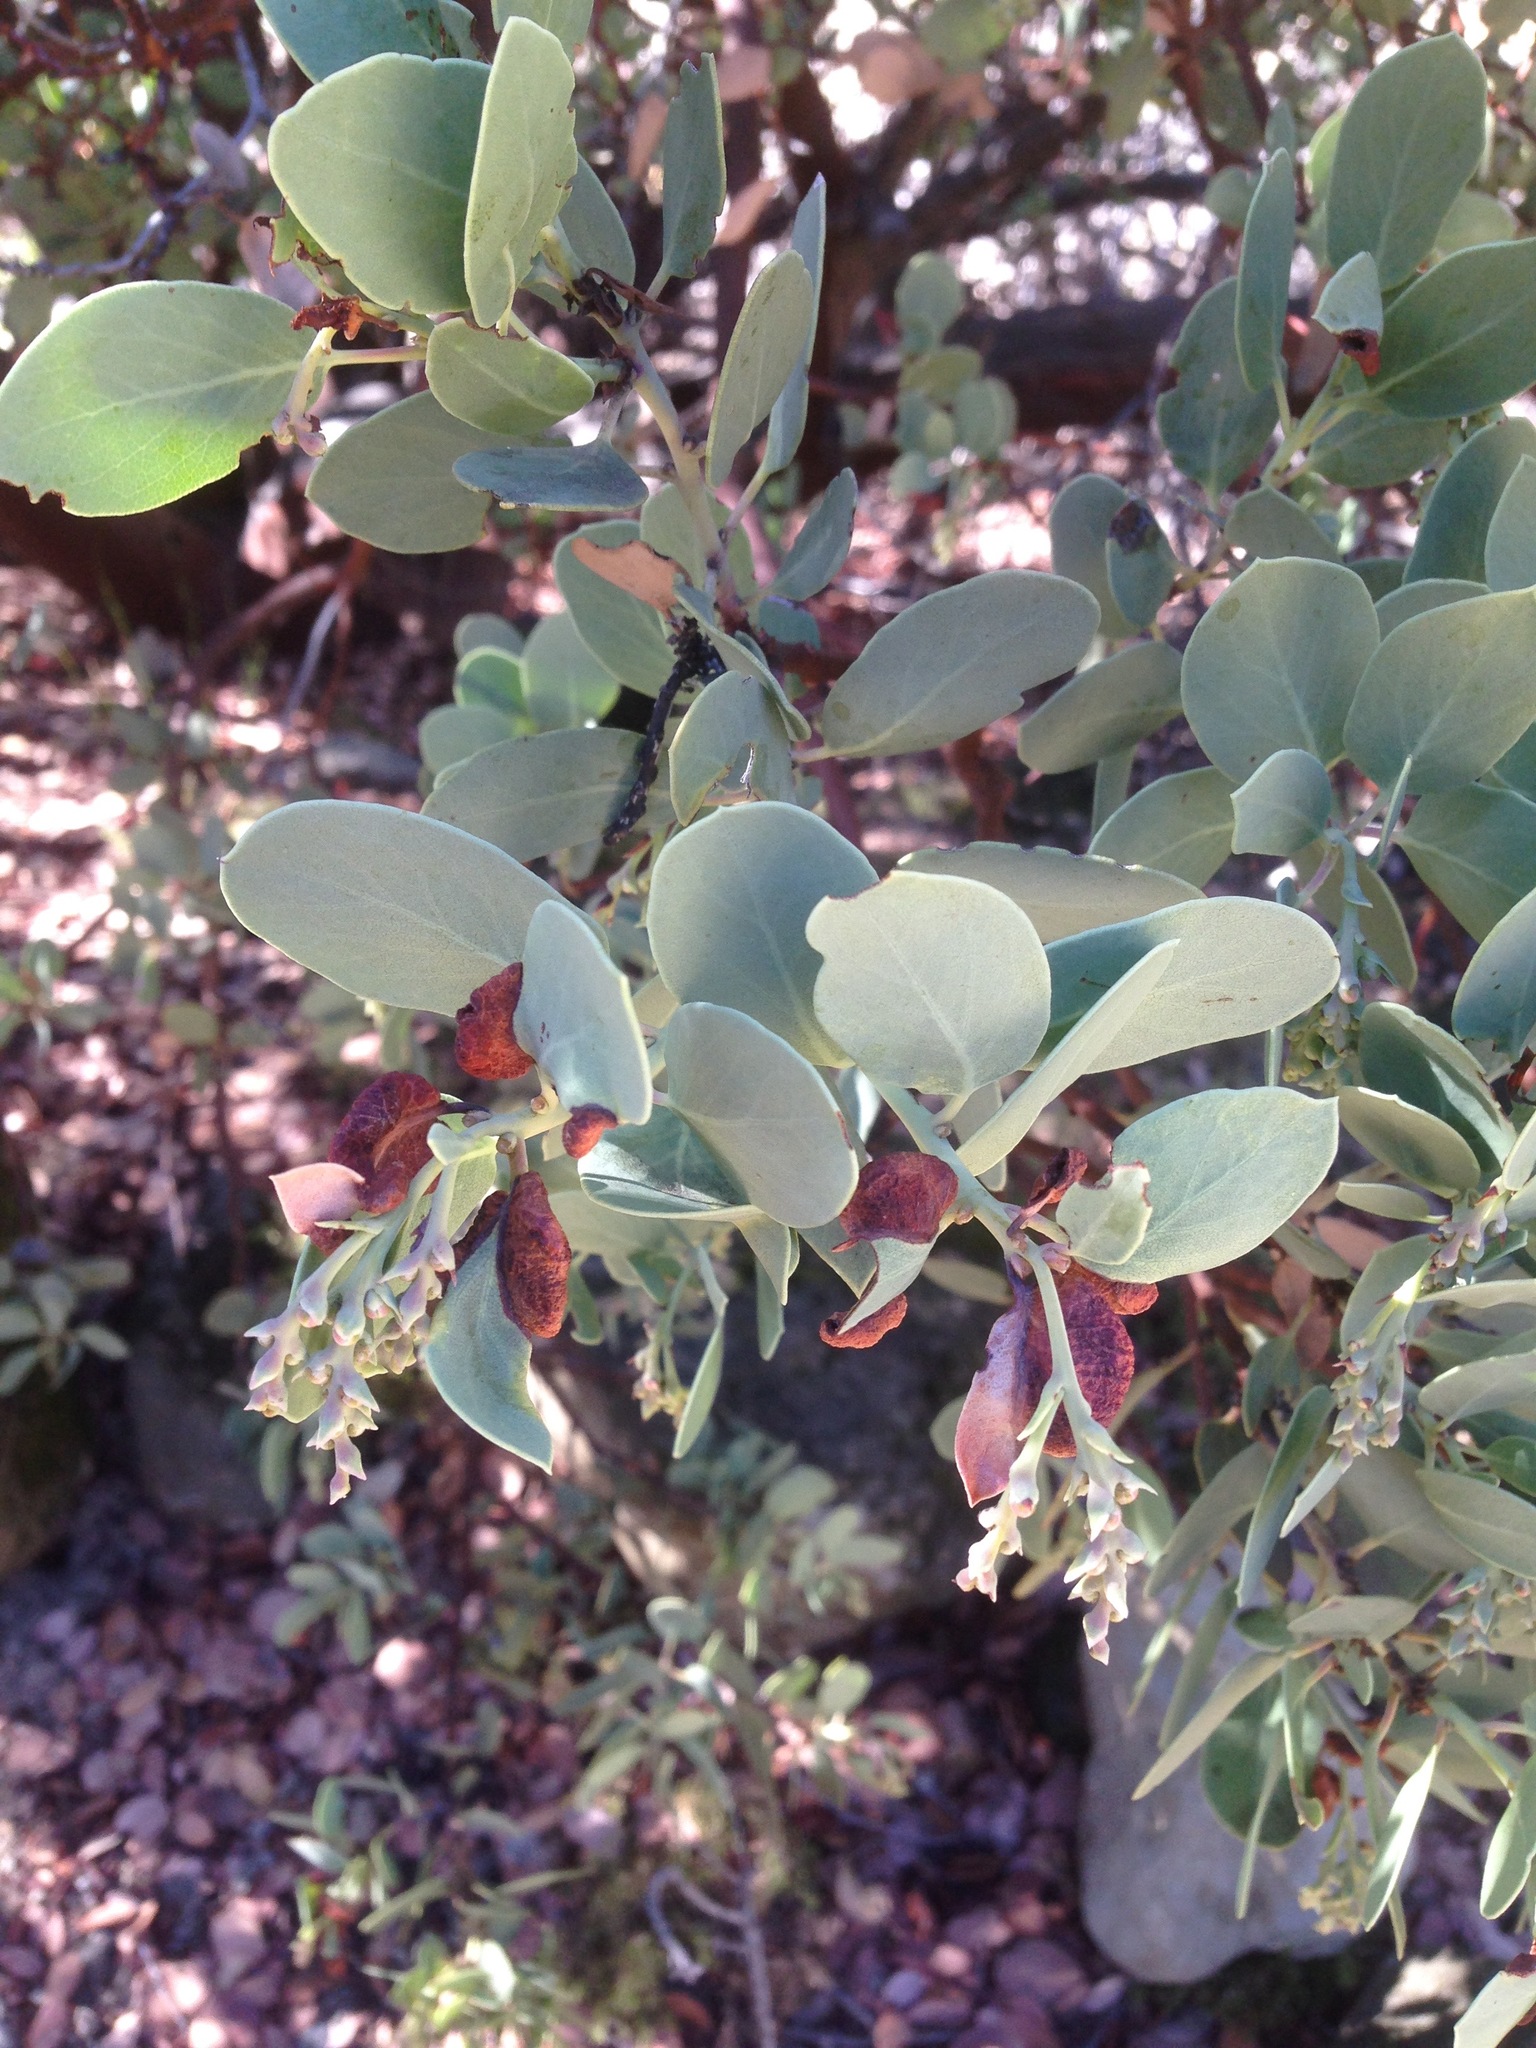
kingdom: Plantae
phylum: Tracheophyta
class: Magnoliopsida
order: Ericales
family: Ericaceae
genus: Arctostaphylos
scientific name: Arctostaphylos glauca
